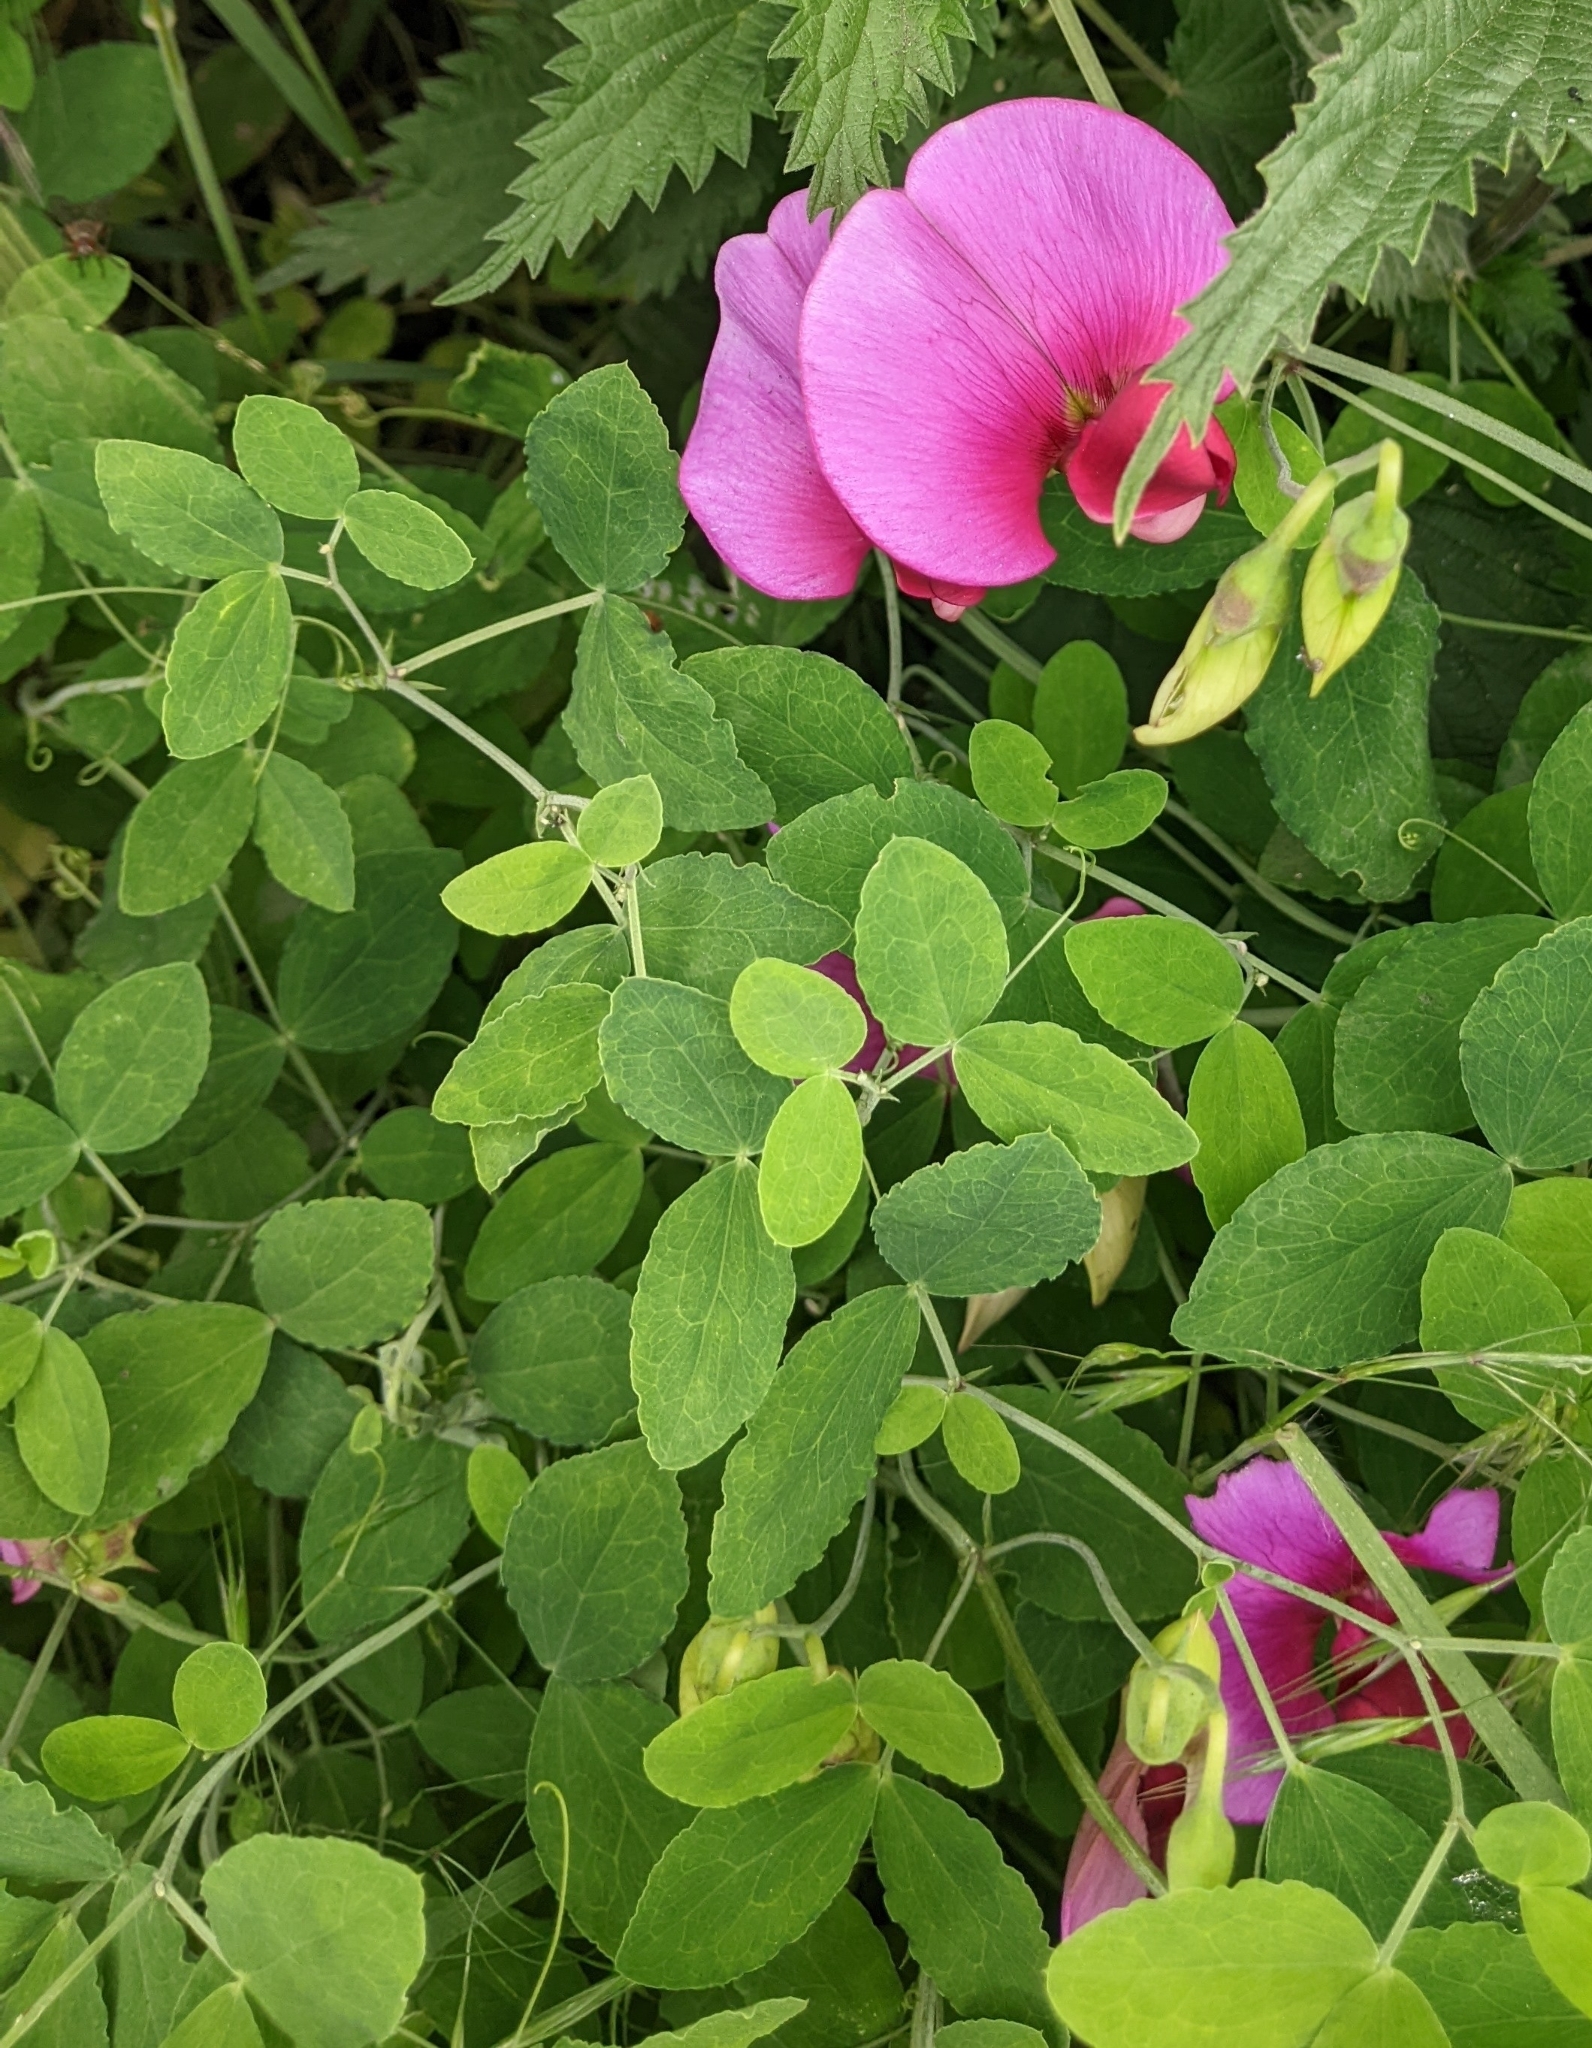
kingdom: Plantae
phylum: Tracheophyta
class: Magnoliopsida
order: Fabales
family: Fabaceae
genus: Lathyrus
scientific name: Lathyrus grandiflorus
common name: Two-flowered everlasting-pea
